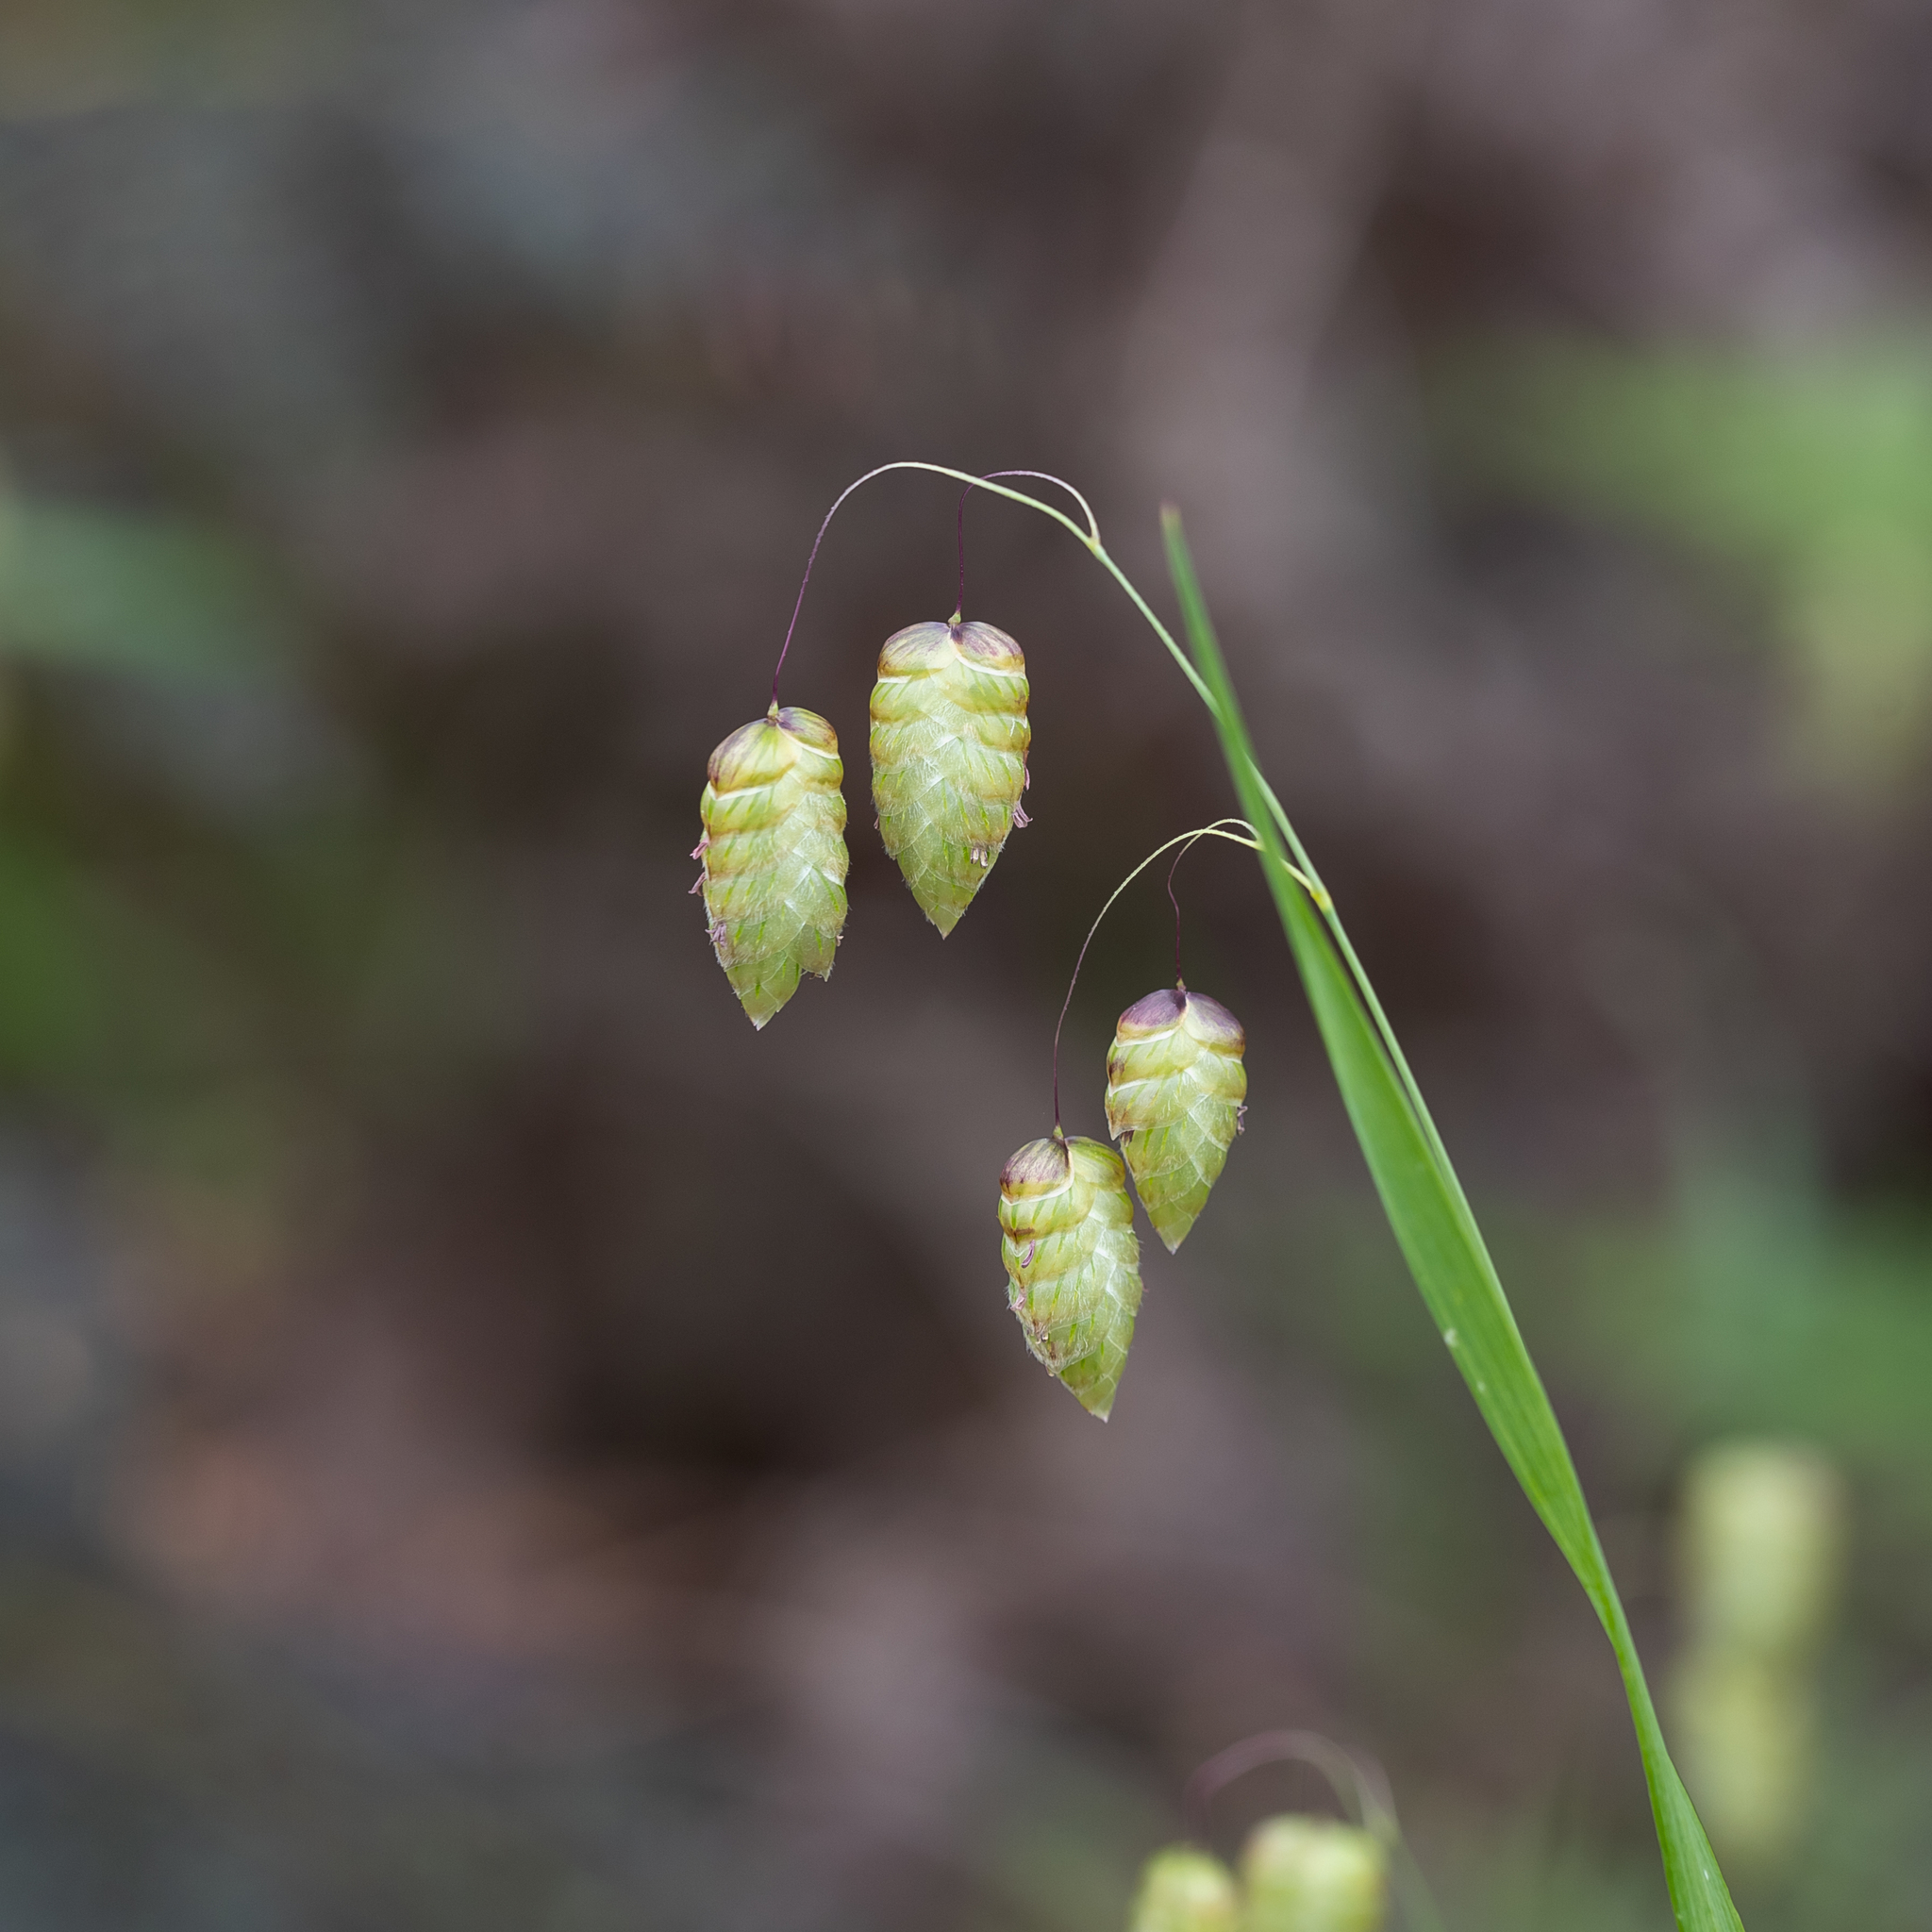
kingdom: Plantae
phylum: Tracheophyta
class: Liliopsida
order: Poales
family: Poaceae
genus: Briza
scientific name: Briza maxima
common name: Big quakinggrass
